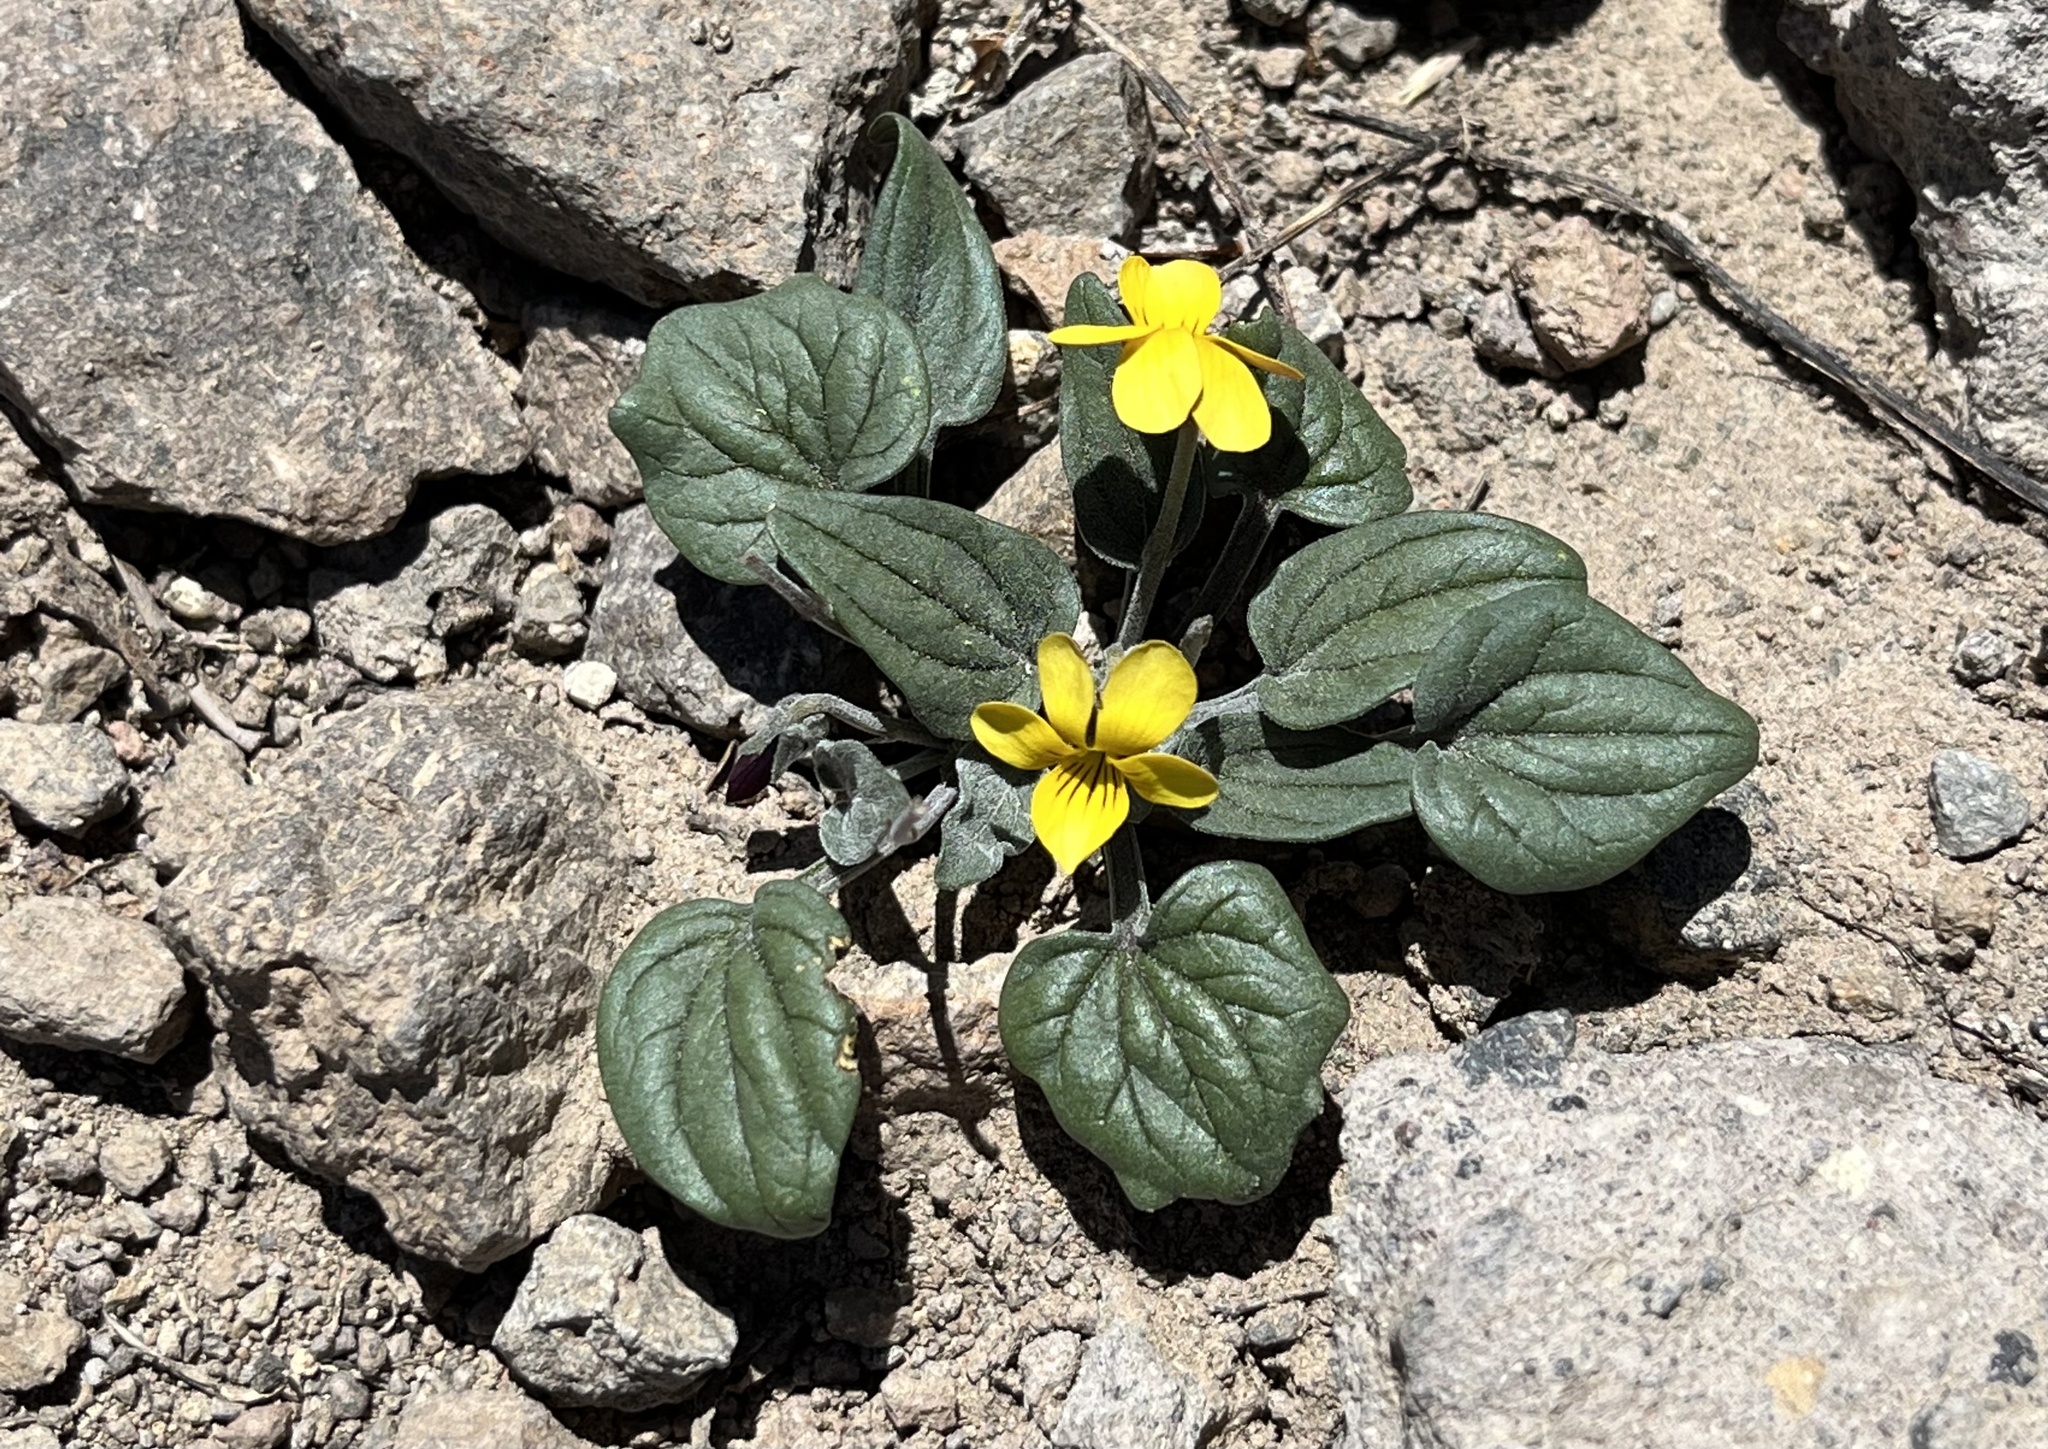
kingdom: Plantae
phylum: Tracheophyta
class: Magnoliopsida
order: Malpighiales
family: Violaceae
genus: Viola
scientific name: Viola purpurea
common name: Pine violet
